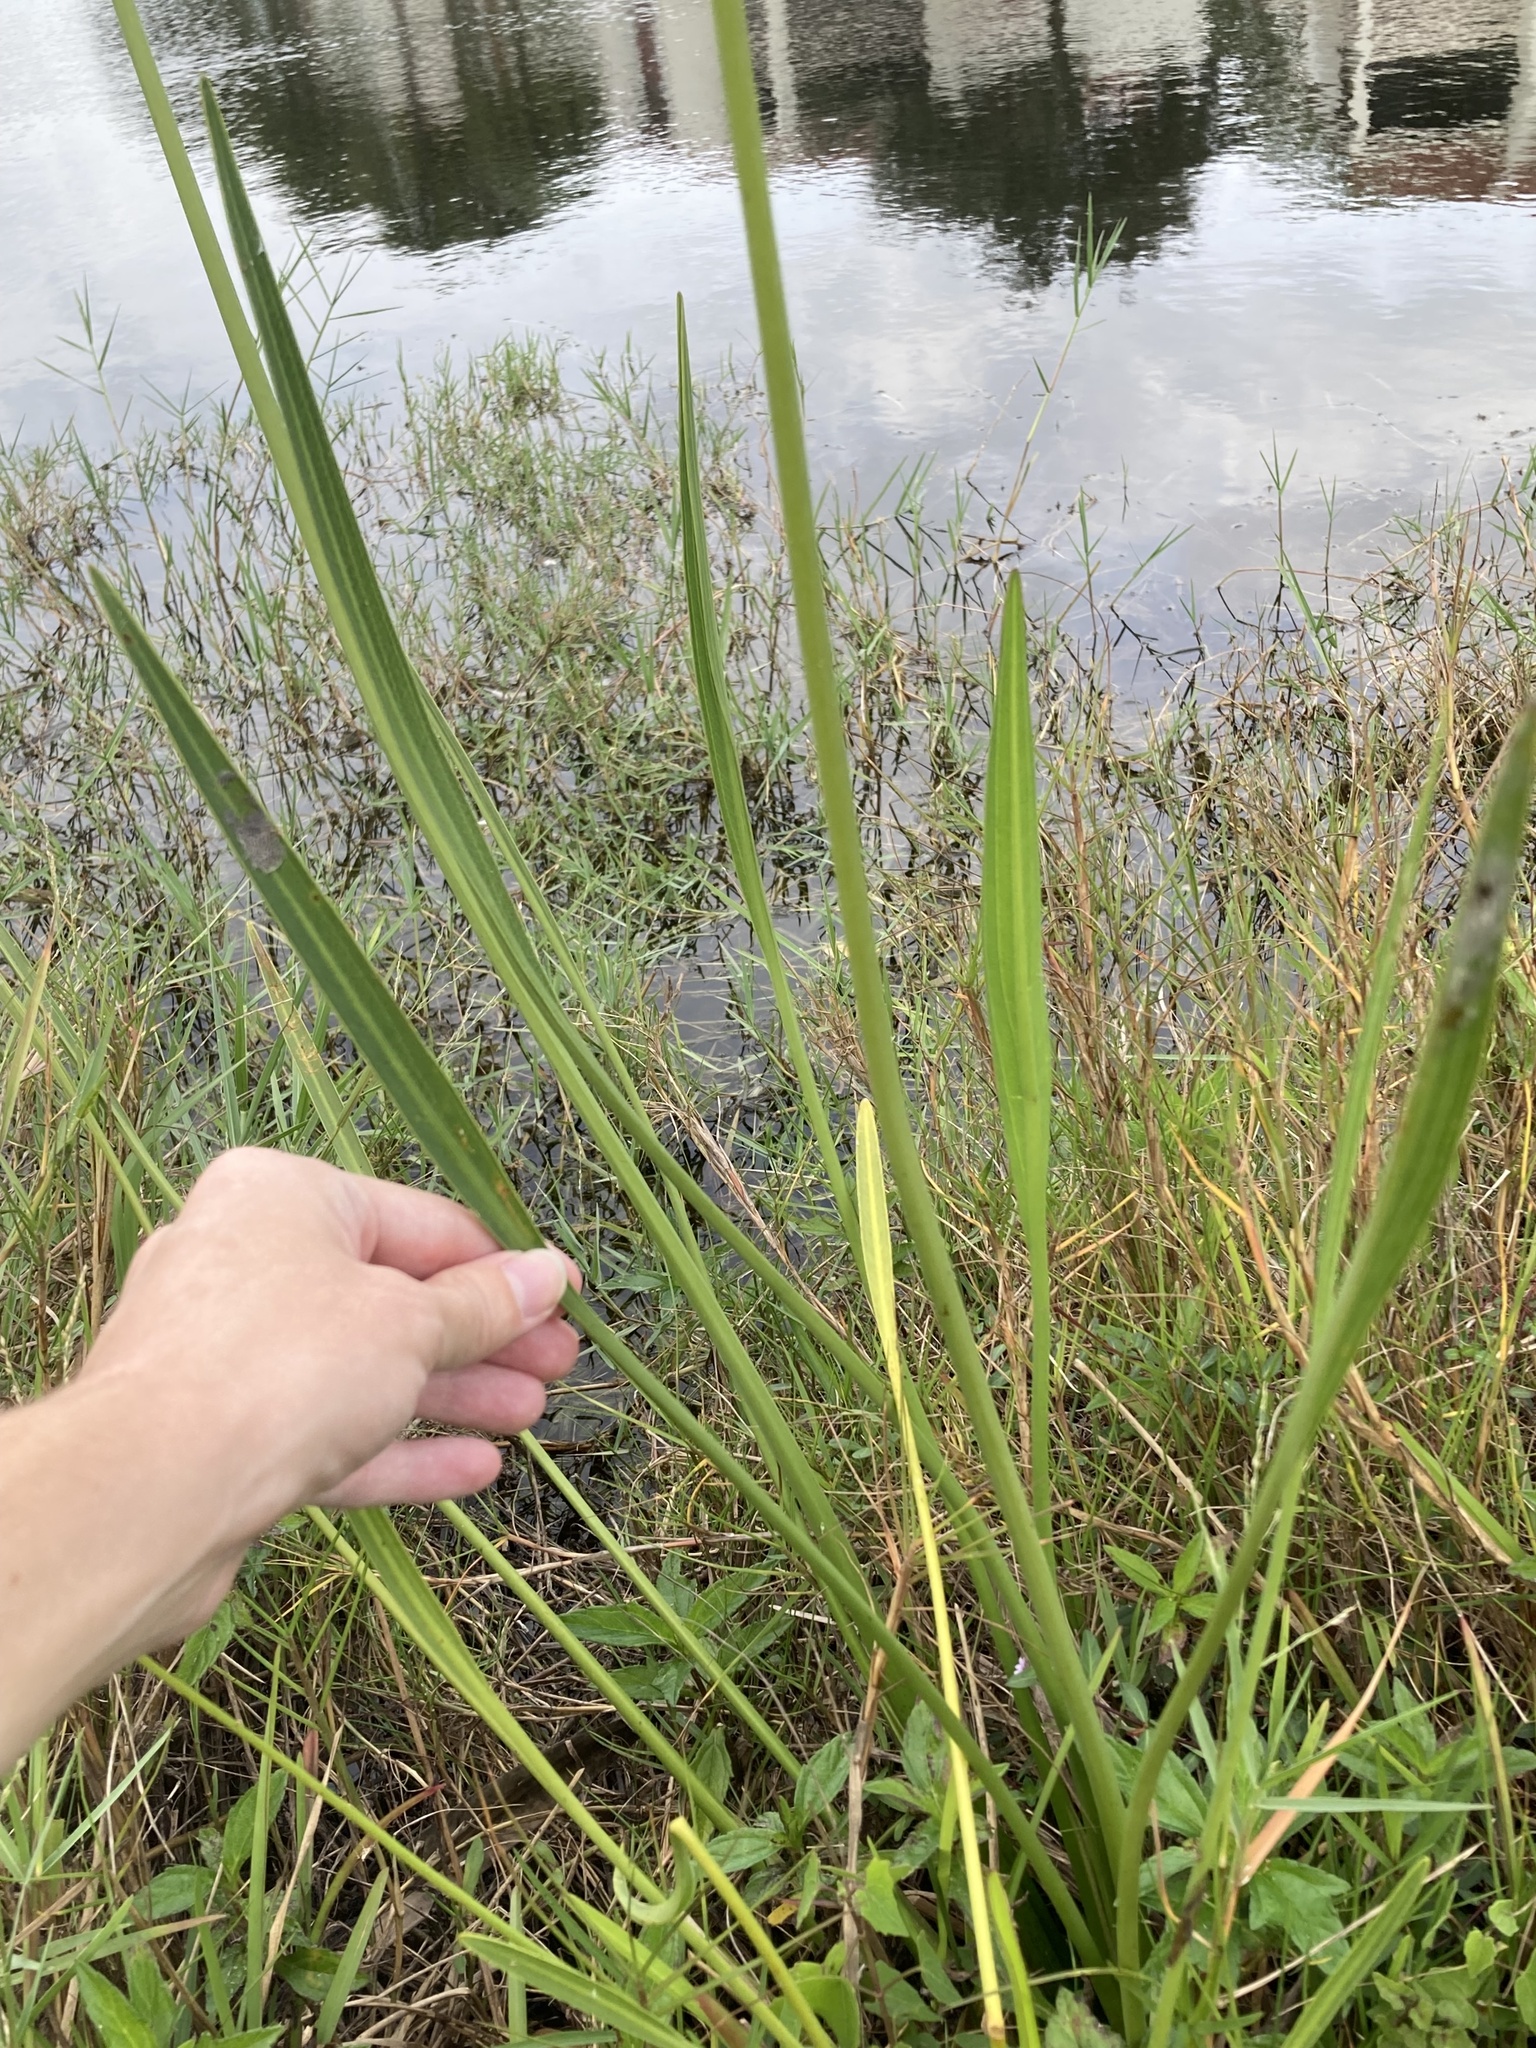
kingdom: Plantae
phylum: Tracheophyta
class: Liliopsida
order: Alismatales
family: Alismataceae
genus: Sagittaria
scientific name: Sagittaria lancifolia
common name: Lance-leaf arrowhead
